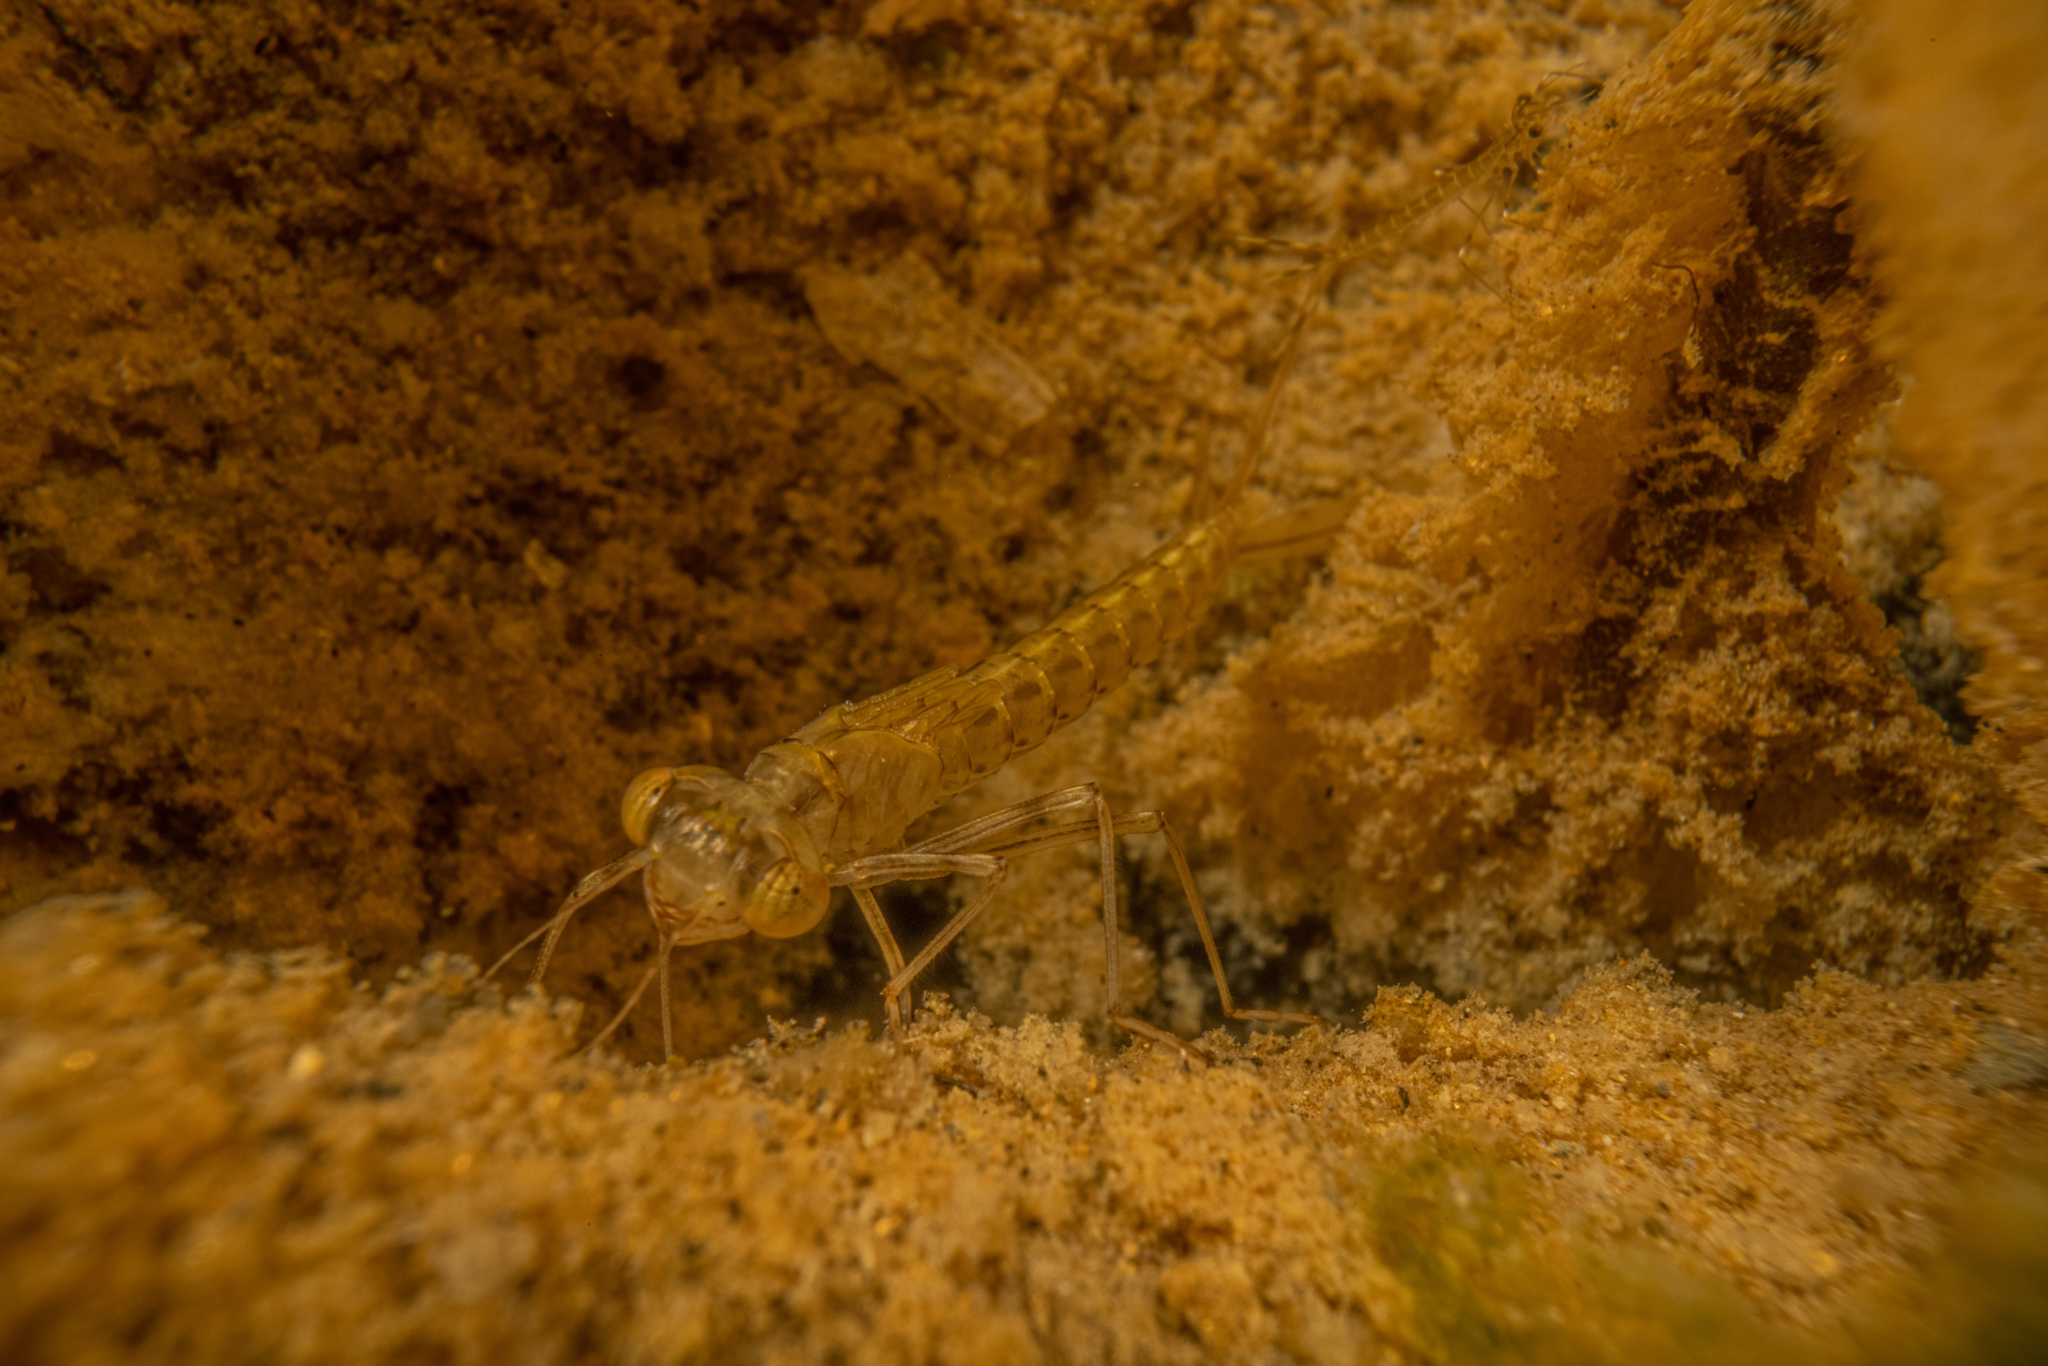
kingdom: Animalia
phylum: Arthropoda
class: Insecta
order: Odonata
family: Lestidae
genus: Austrolestes
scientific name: Austrolestes colensonis
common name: Blue damselfly
